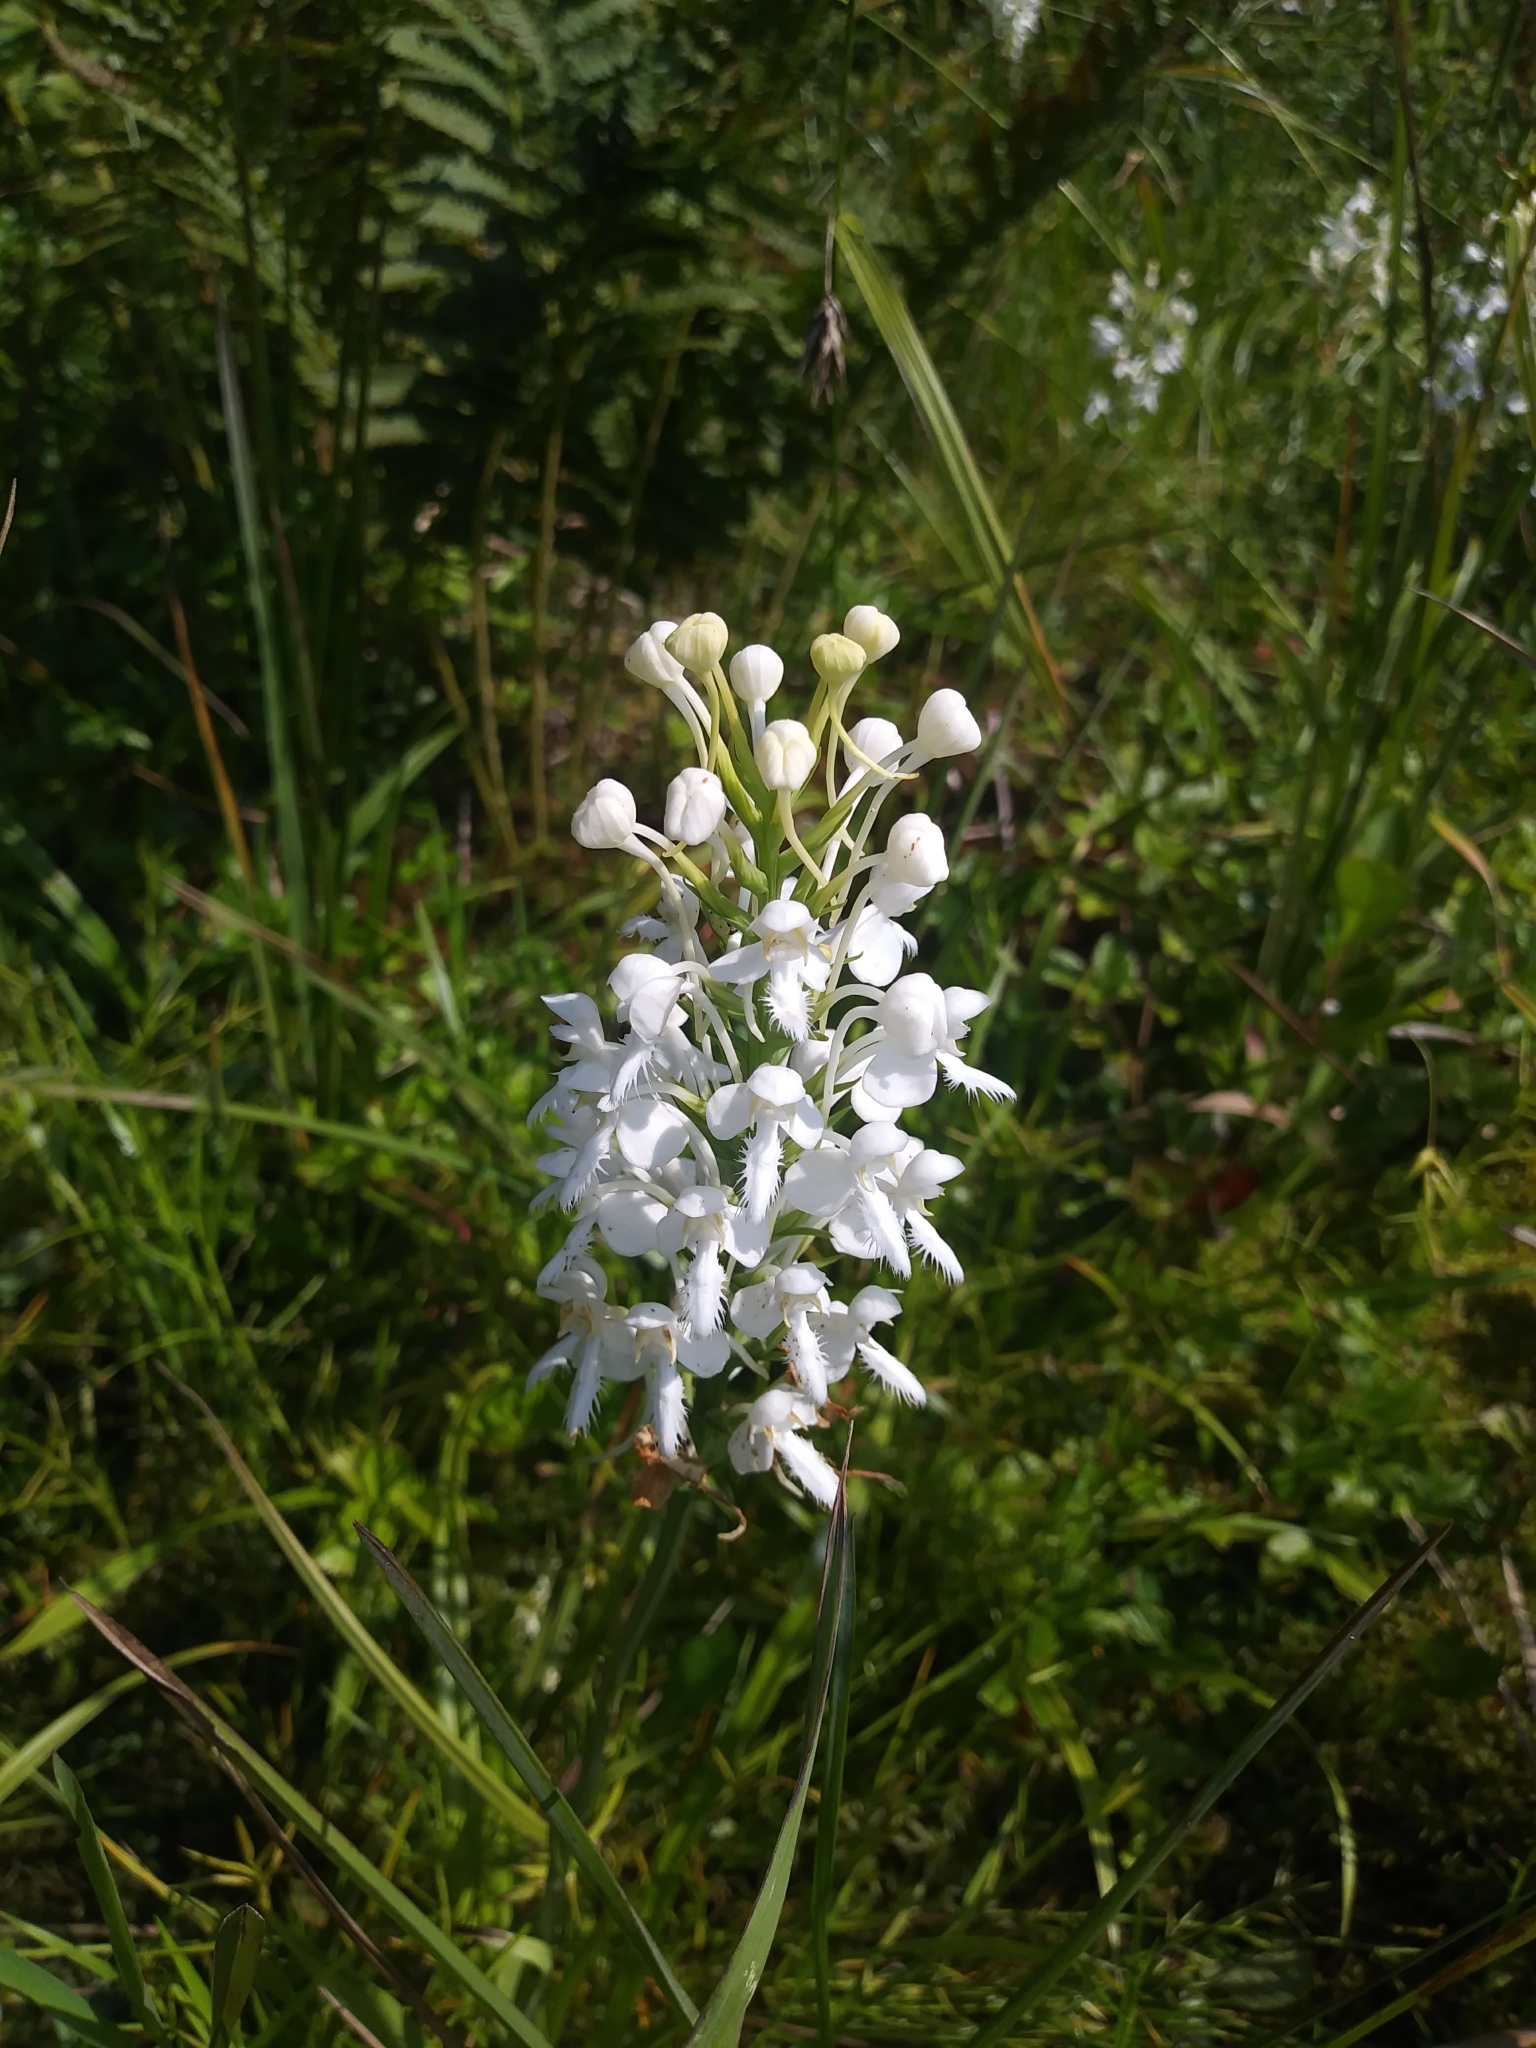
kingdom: Plantae
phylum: Tracheophyta
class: Liliopsida
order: Asparagales
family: Orchidaceae
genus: Platanthera
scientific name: Platanthera blephariglottis
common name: White fringed orchid
